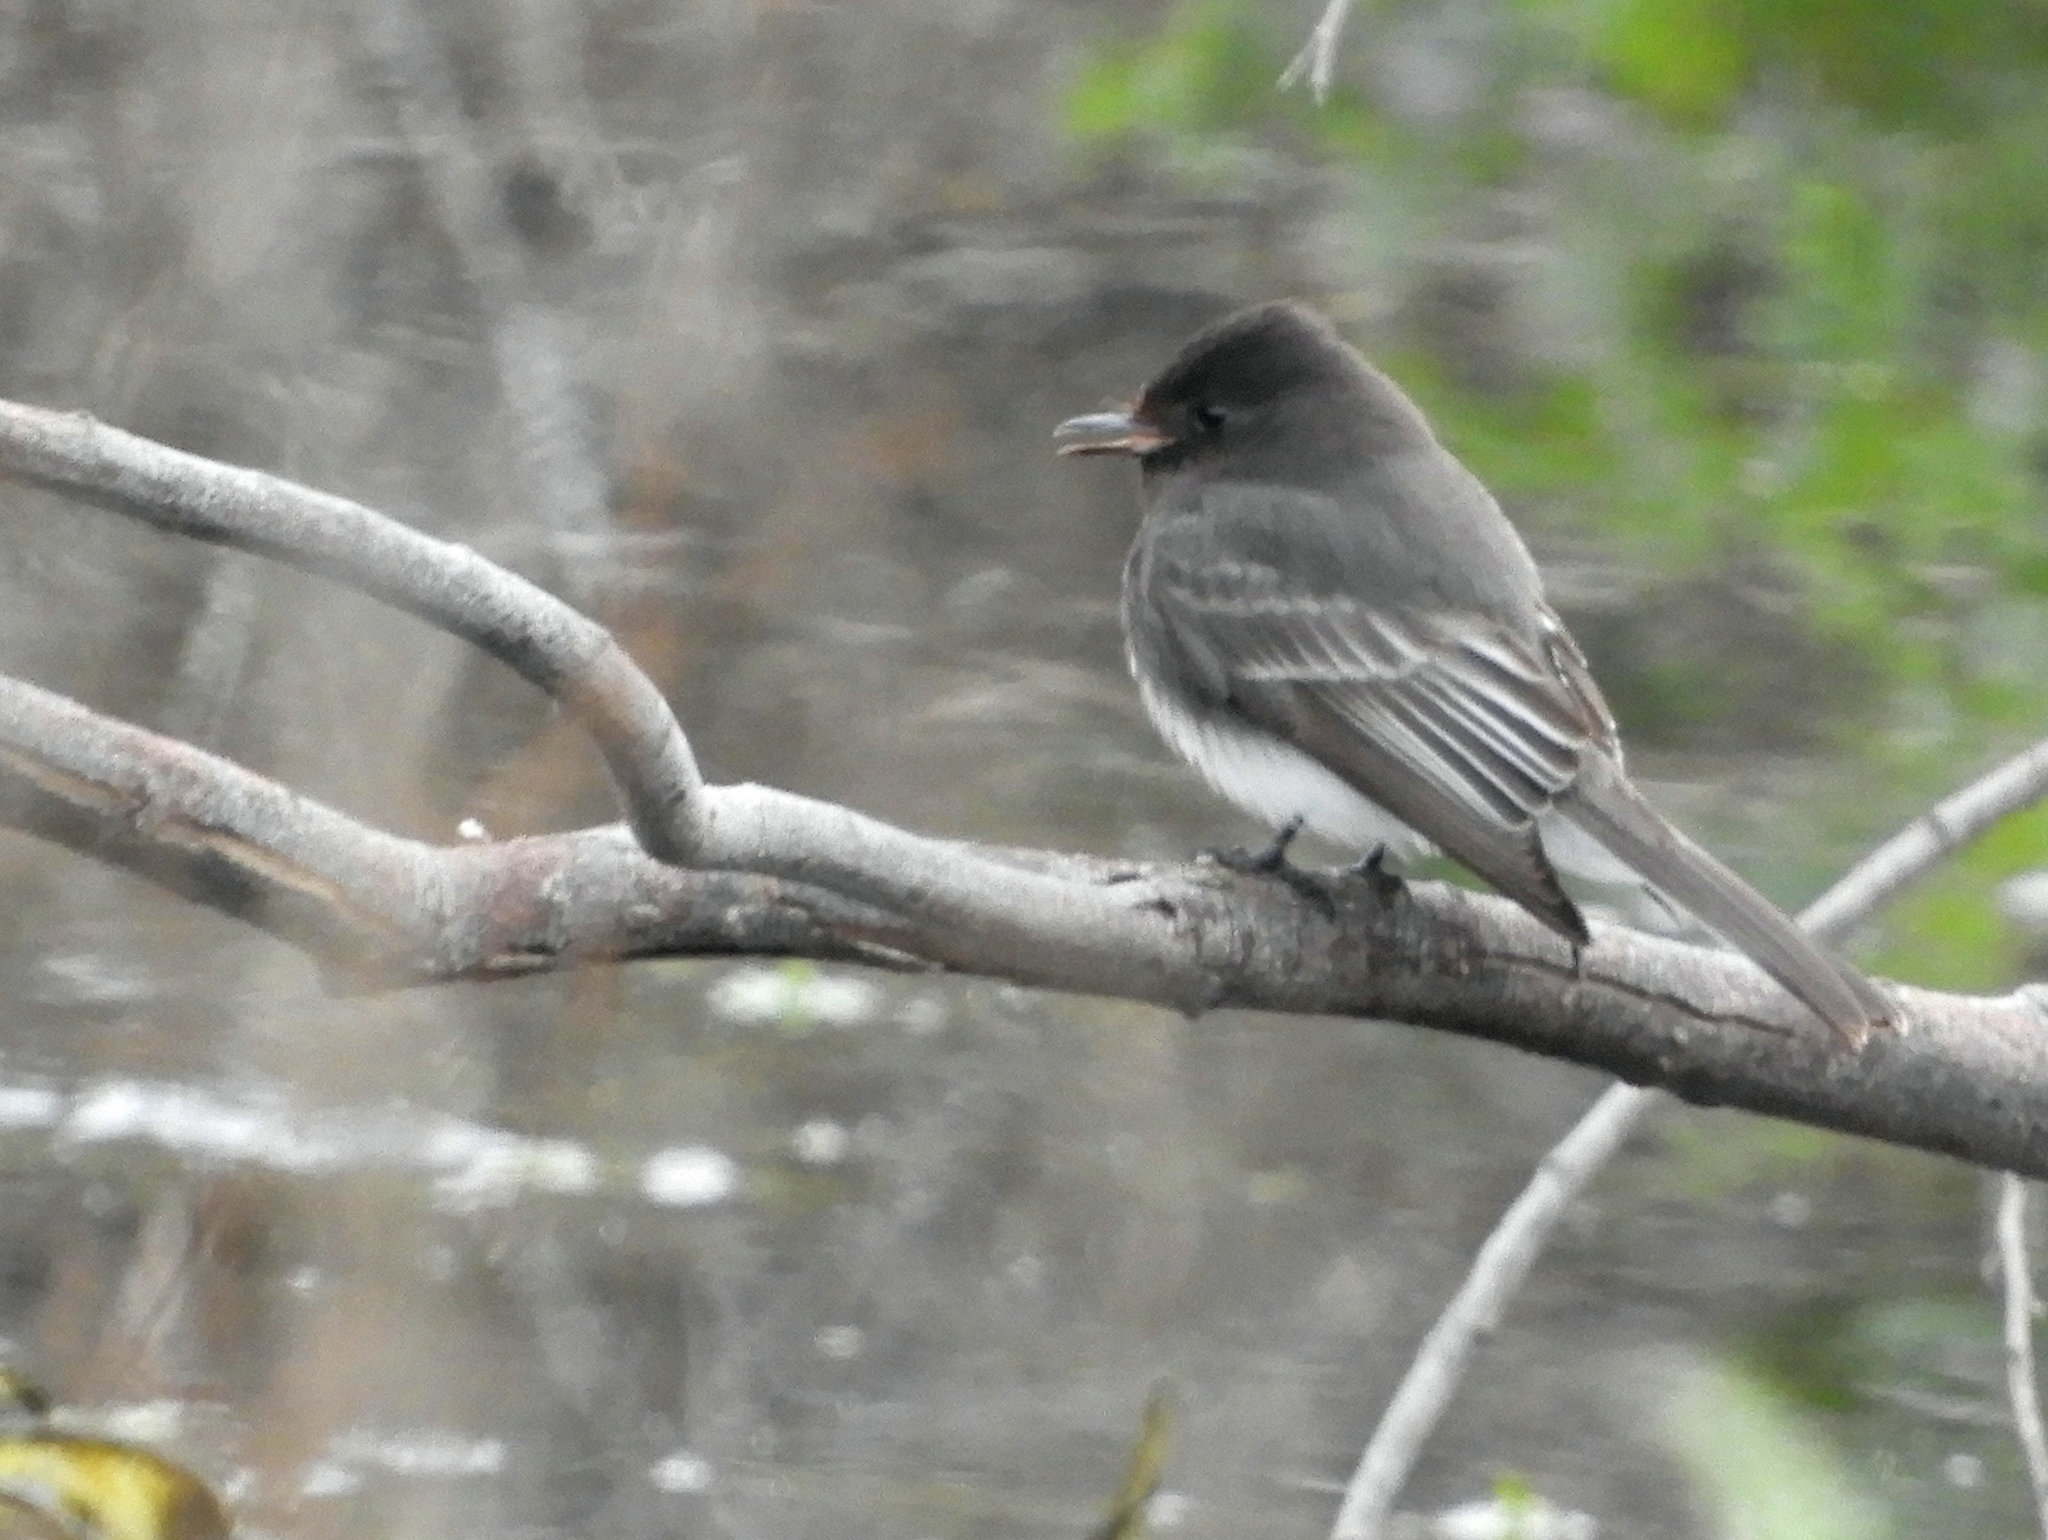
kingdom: Animalia
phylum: Chordata
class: Aves
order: Passeriformes
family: Tyrannidae
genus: Sayornis
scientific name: Sayornis nigricans
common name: Black phoebe
